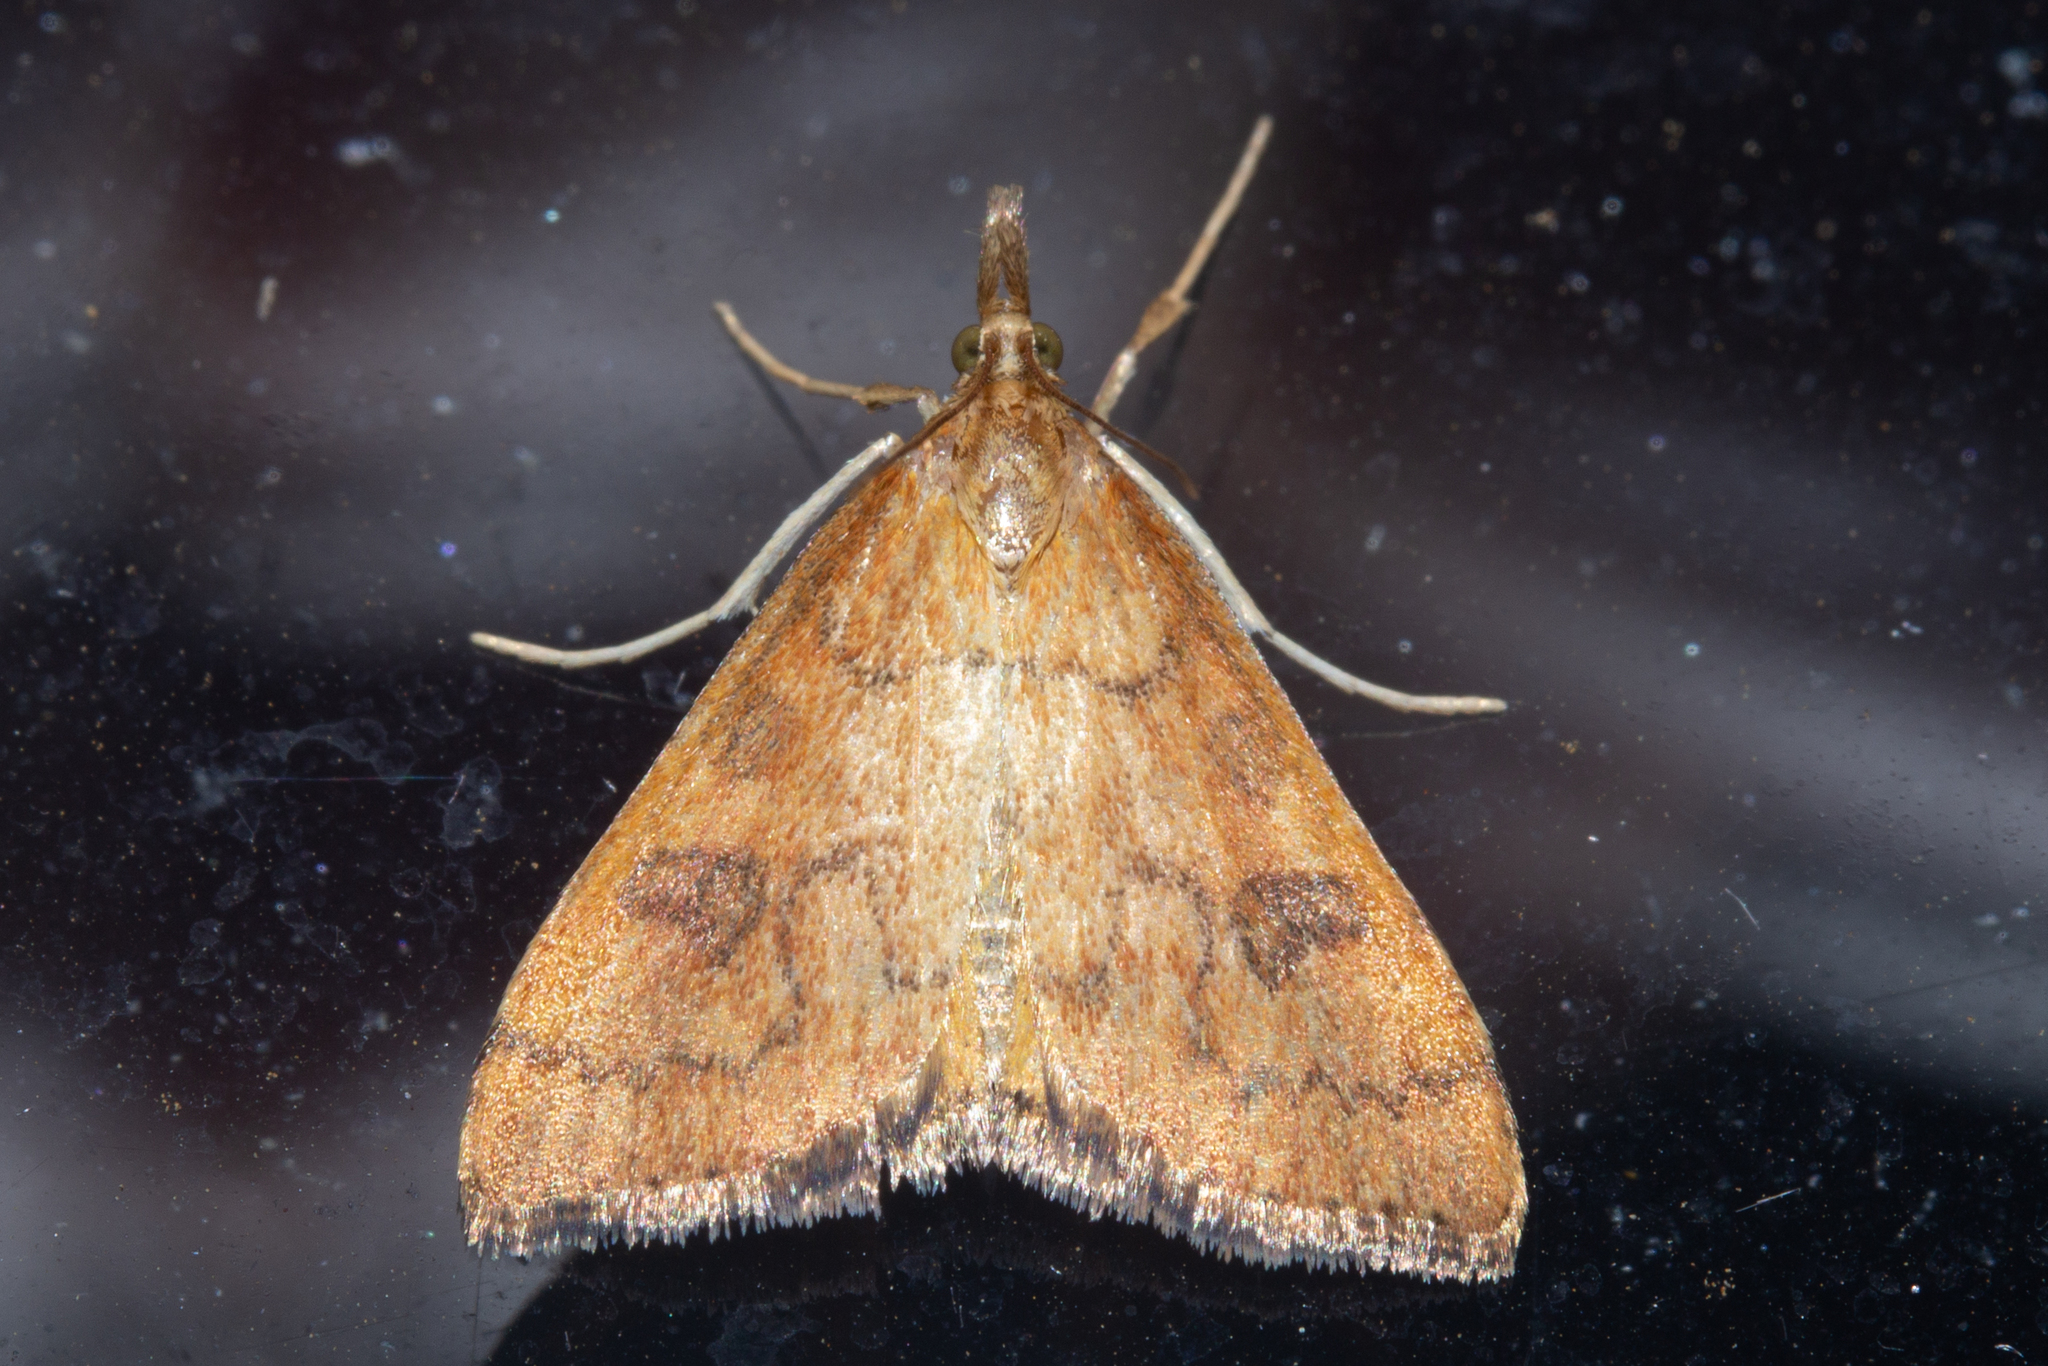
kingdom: Animalia
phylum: Arthropoda
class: Insecta
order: Lepidoptera
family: Crambidae
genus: Udea
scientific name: Udea Mnesictena flavidalis
